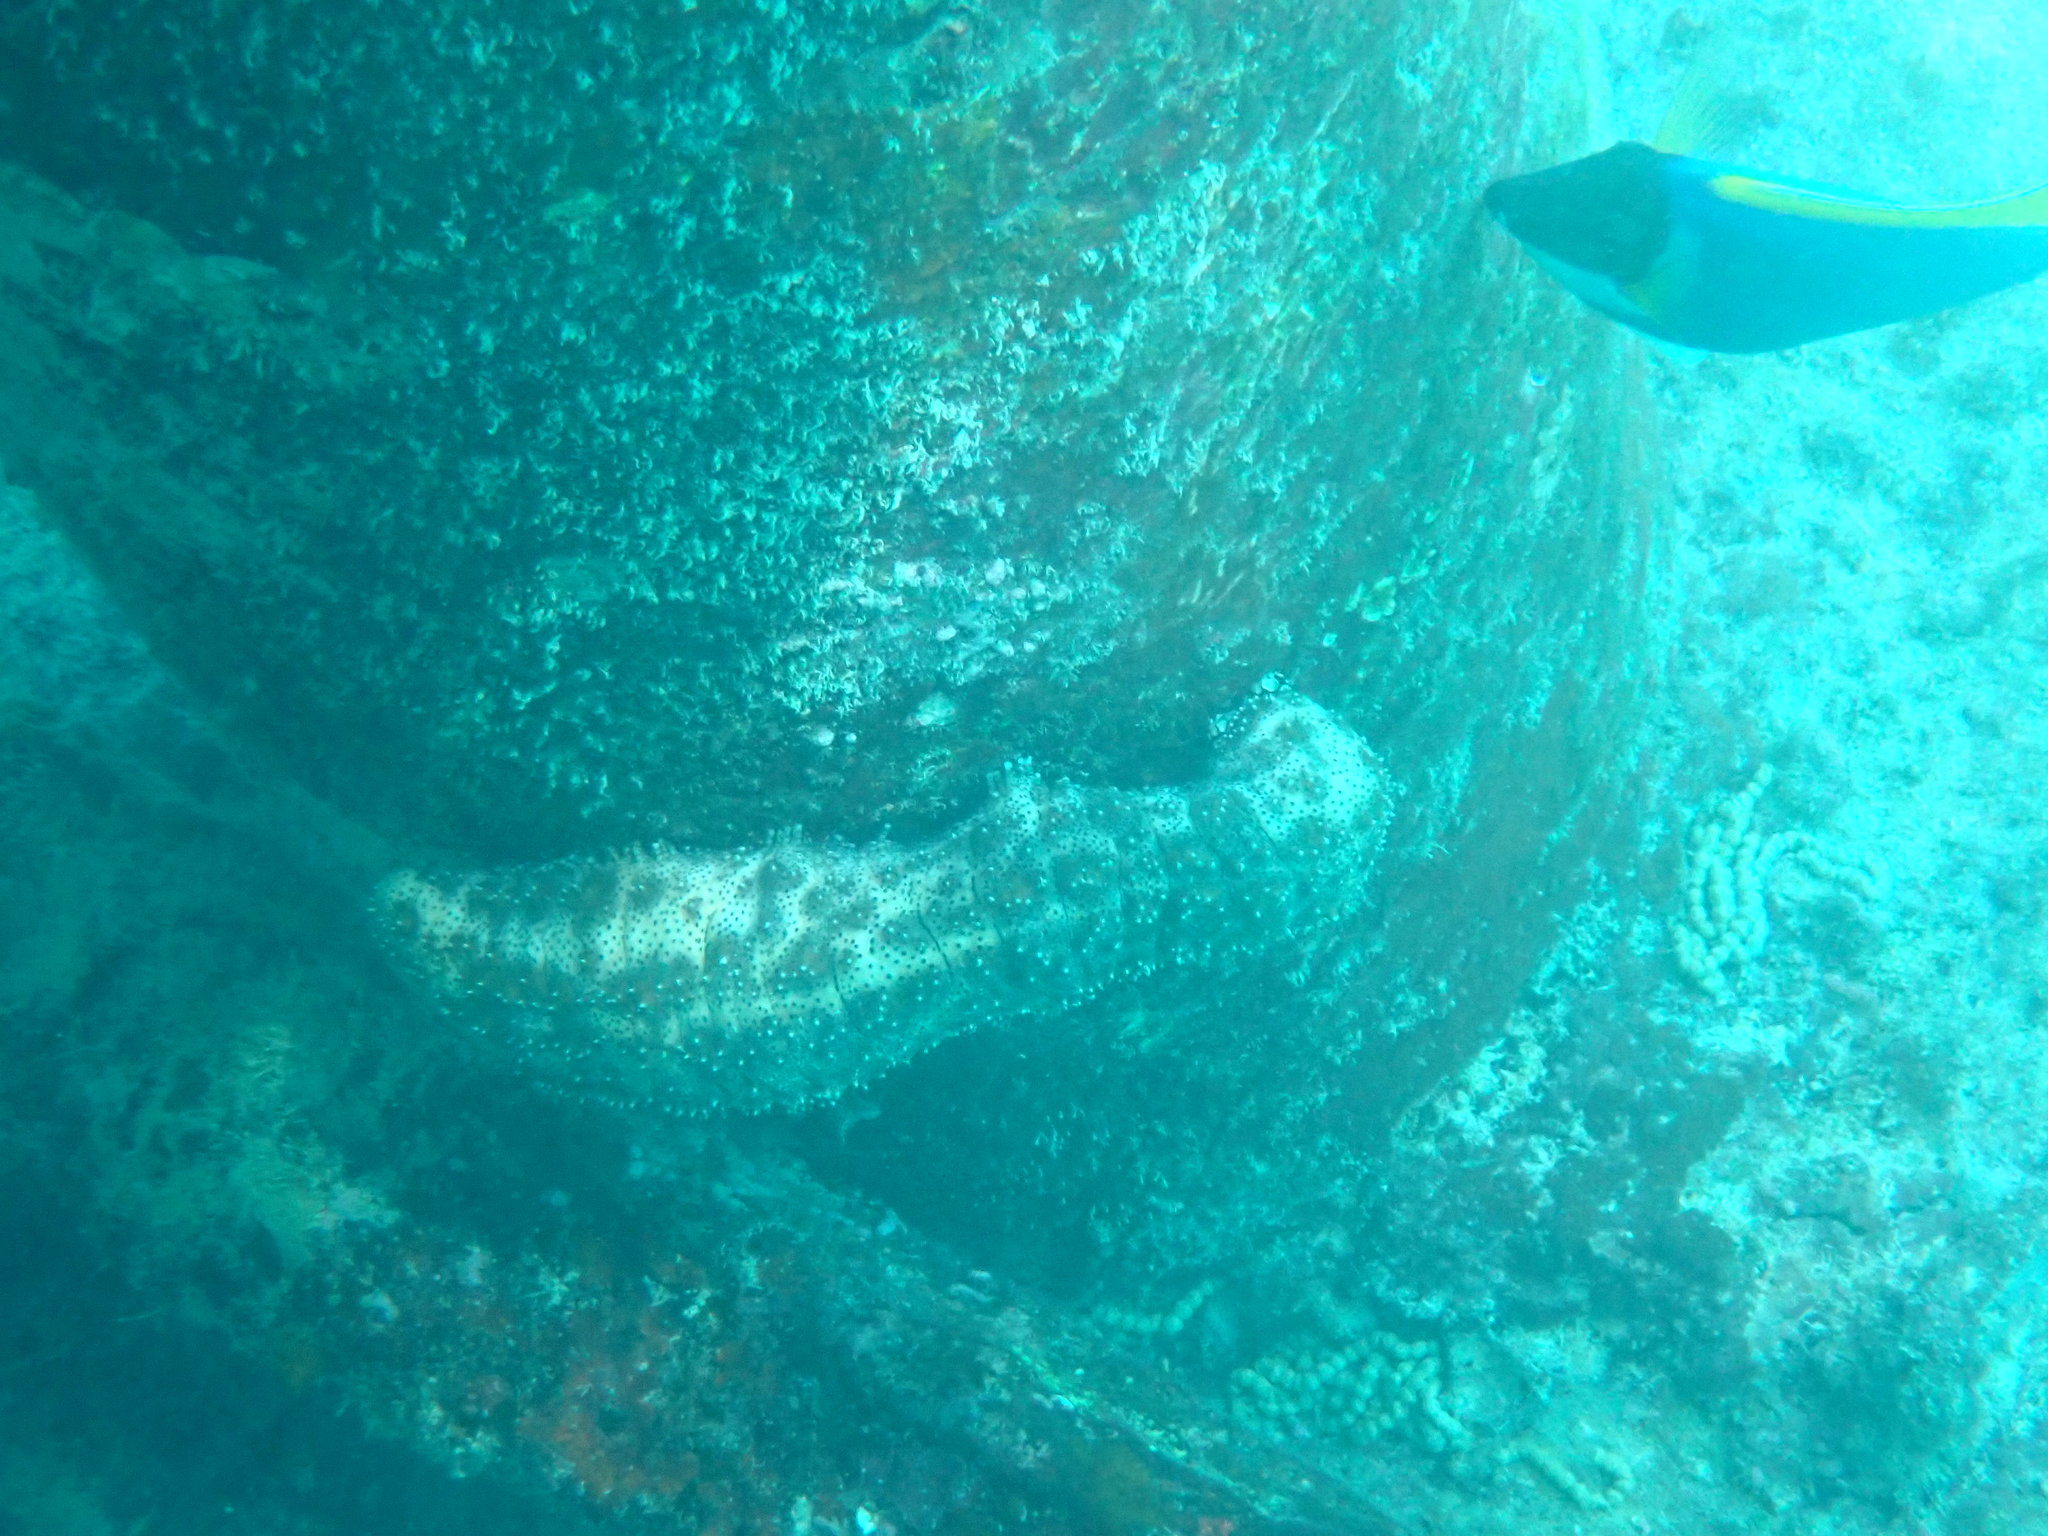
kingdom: Animalia
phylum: Echinodermata
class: Holothuroidea
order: Holothuriida
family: Holothuriidae
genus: Pearsonothuria
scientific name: Pearsonothuria graeffei
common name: Blackspotted sea cucumber
